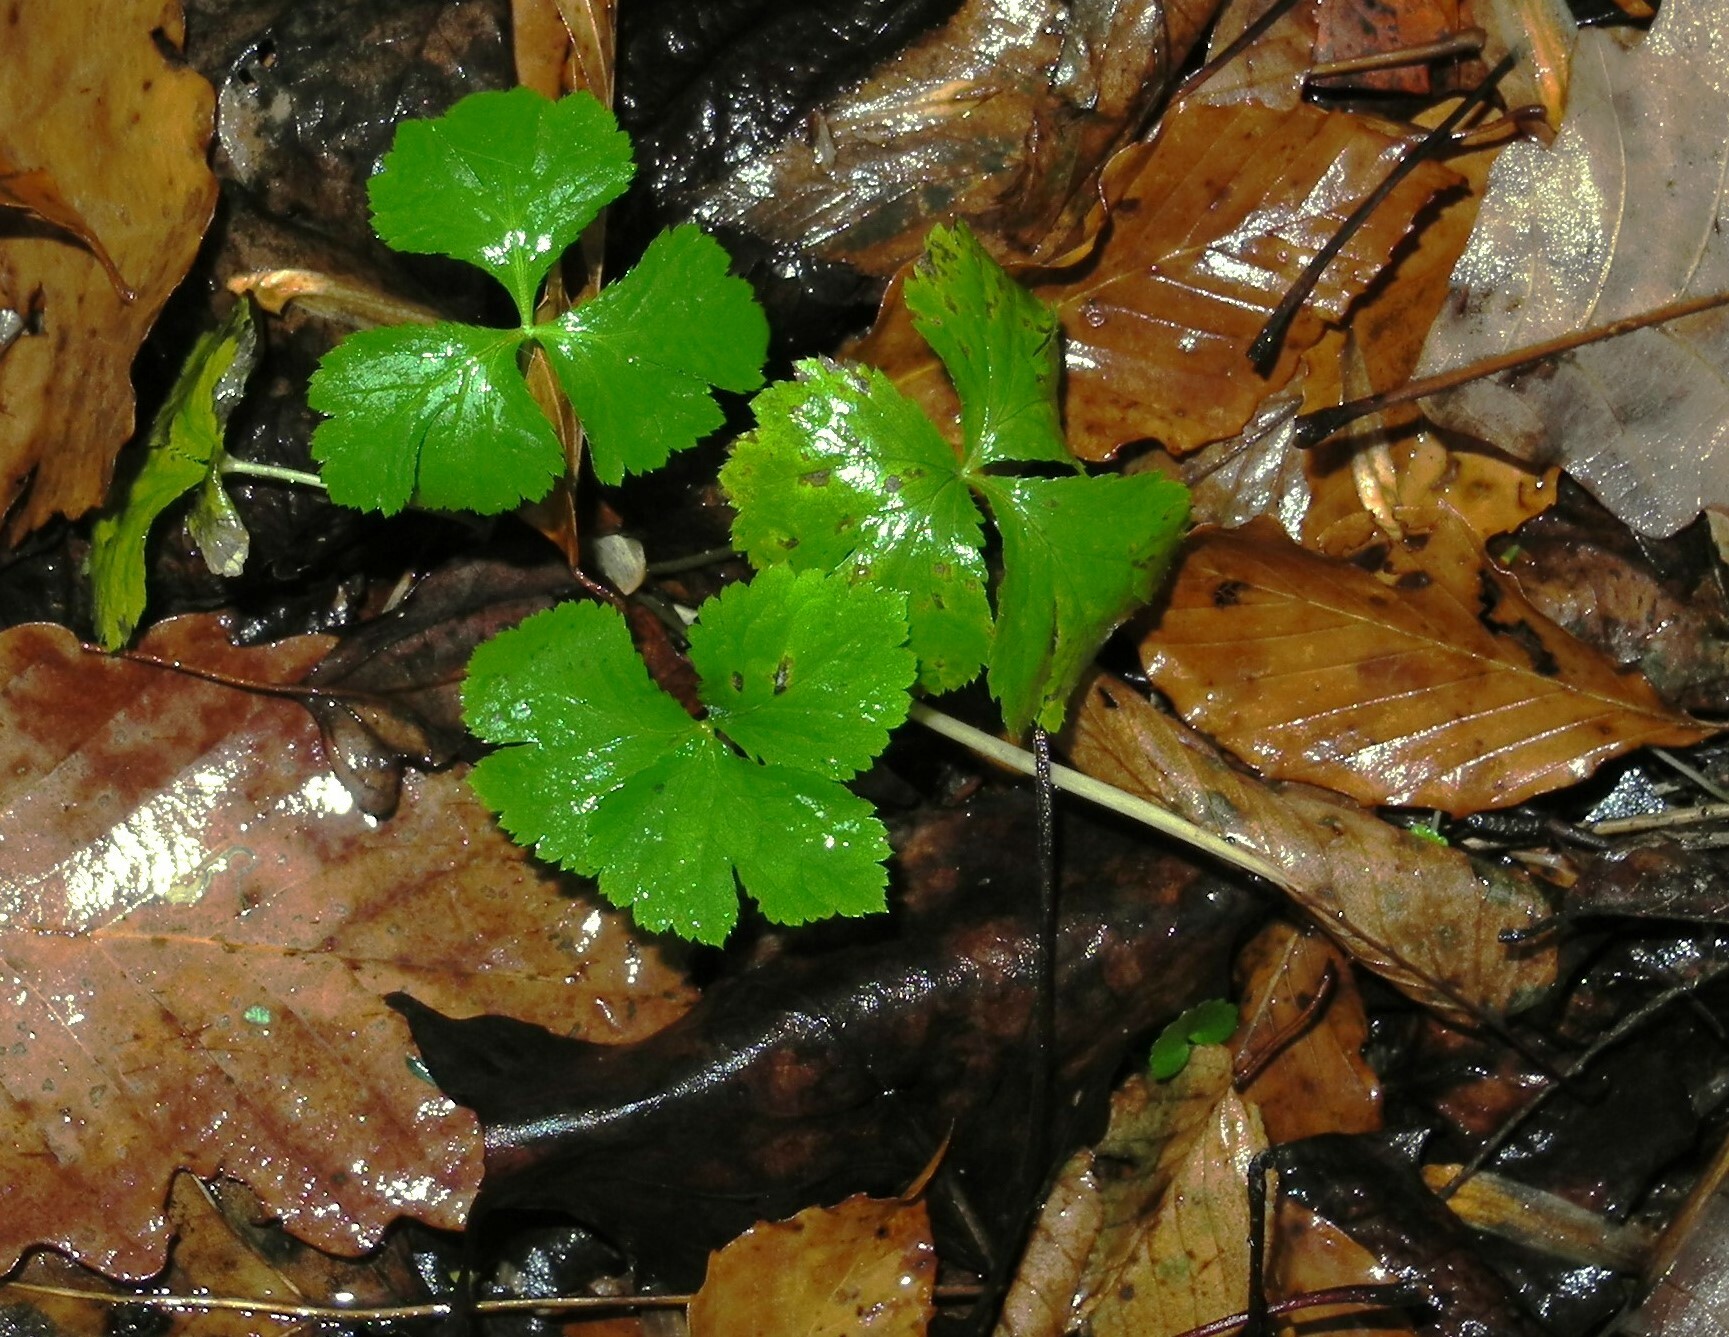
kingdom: Plantae
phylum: Tracheophyta
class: Magnoliopsida
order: Apiales
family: Apiaceae
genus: Cryptotaenia
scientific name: Cryptotaenia canadensis
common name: Honewort
